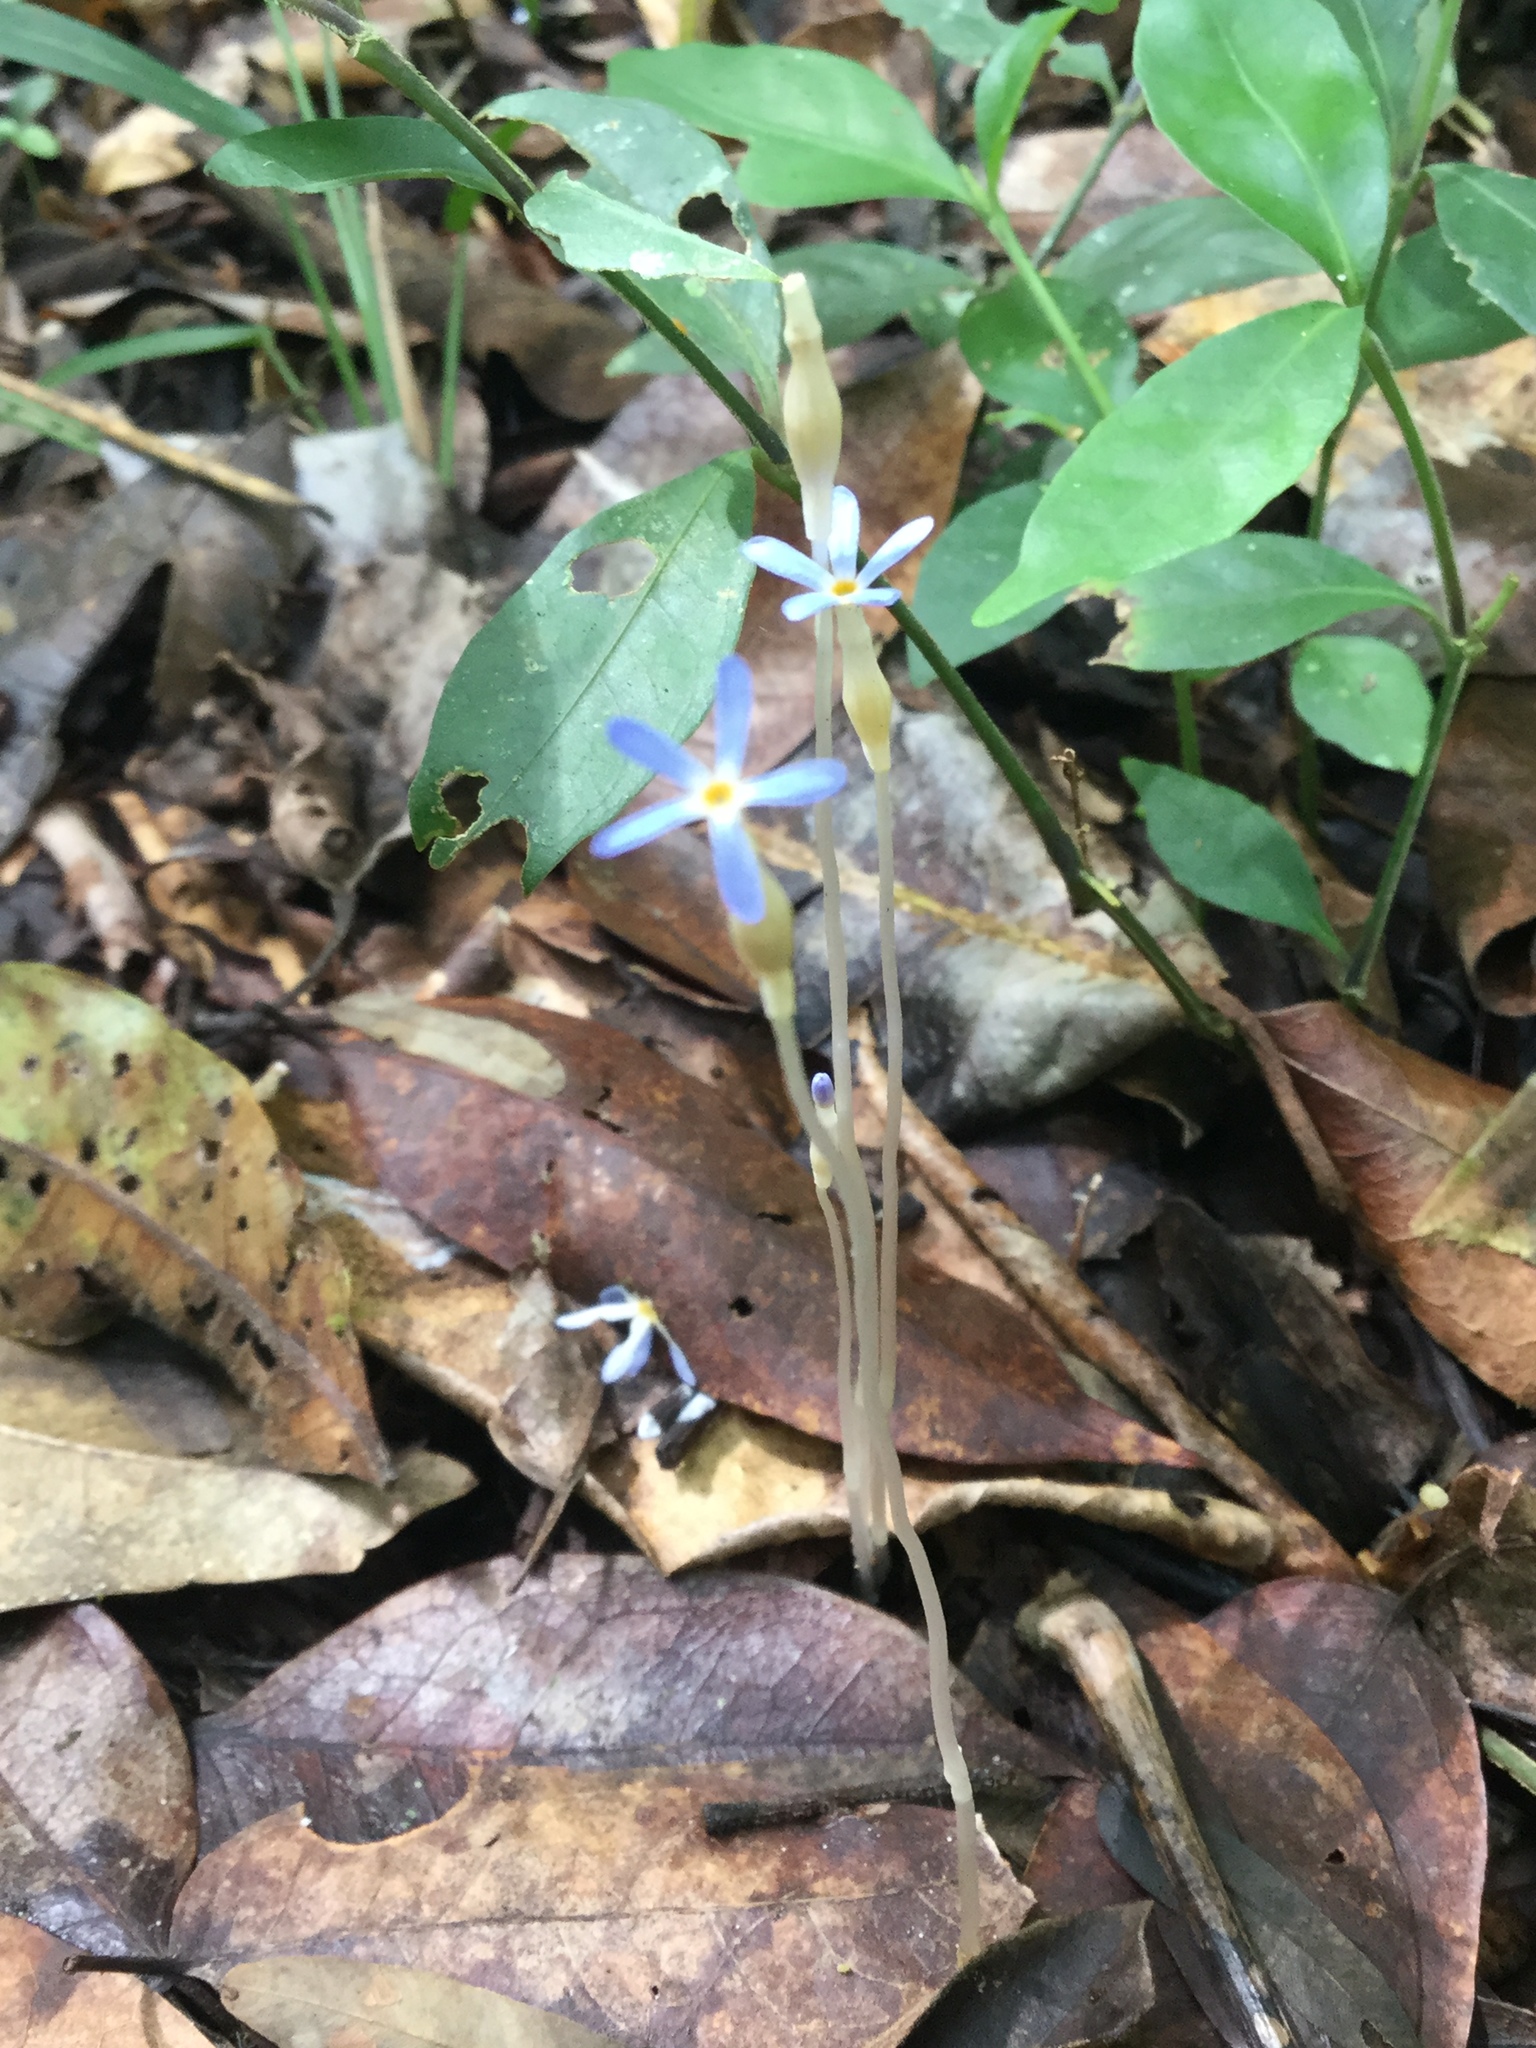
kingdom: Plantae
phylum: Tracheophyta
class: Magnoliopsida
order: Gentianales
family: Gentianaceae
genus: Voyria
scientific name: Voyria tenella
